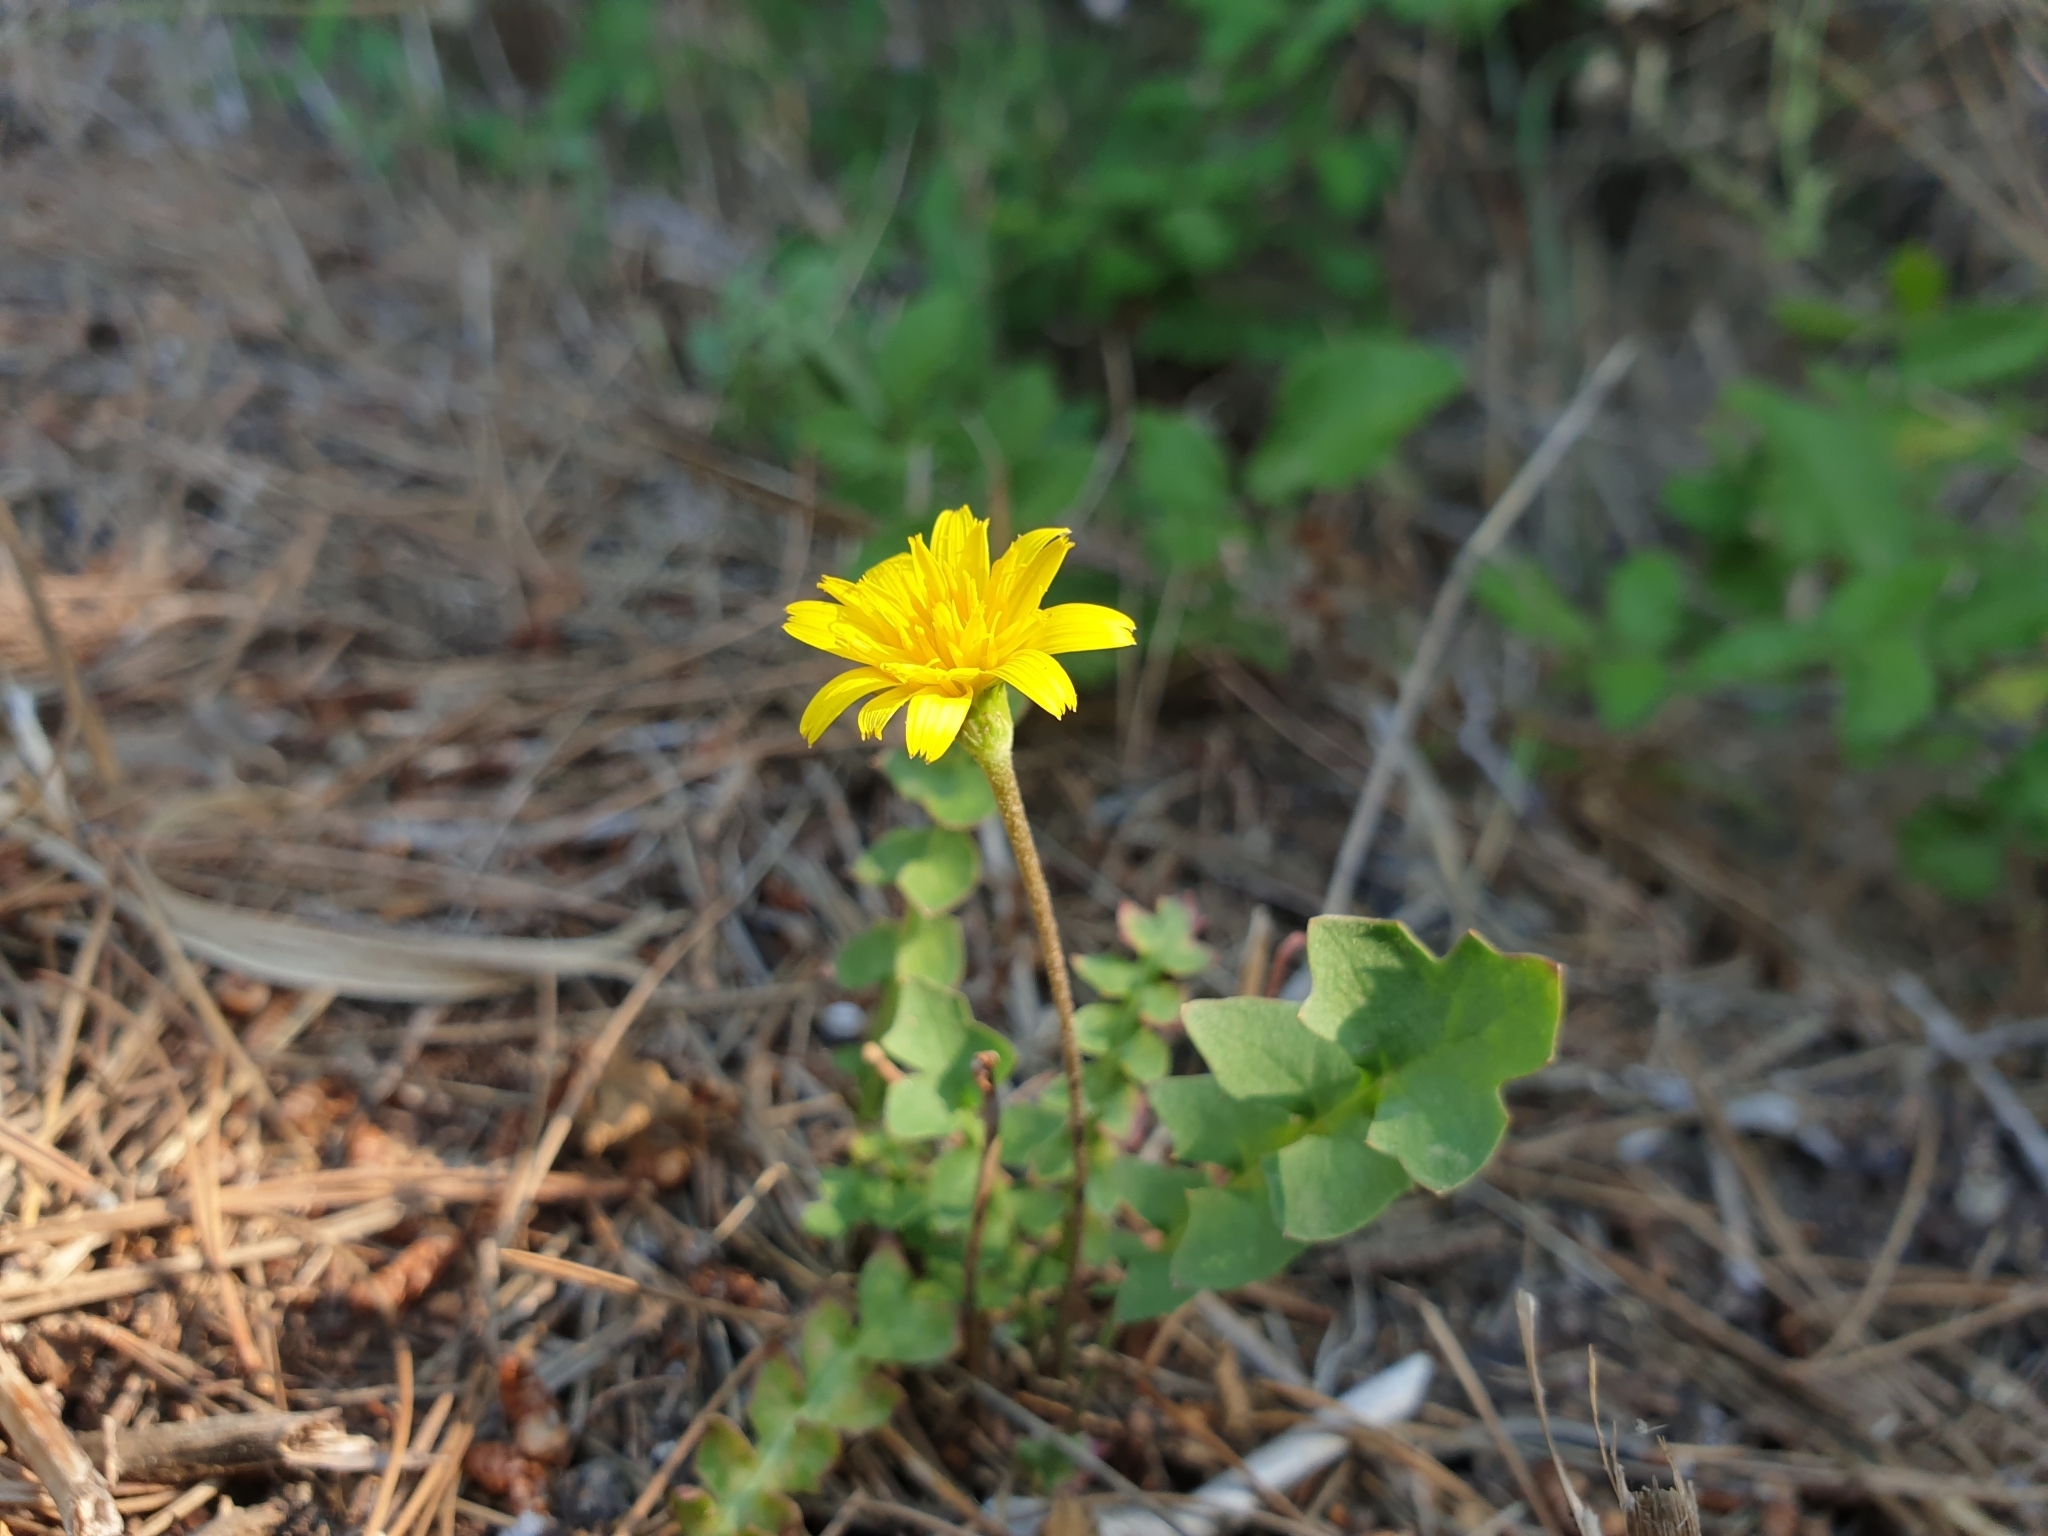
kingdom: Plantae
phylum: Tracheophyta
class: Magnoliopsida
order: Asterales
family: Asteraceae
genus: Hyoseris
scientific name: Hyoseris radiata
